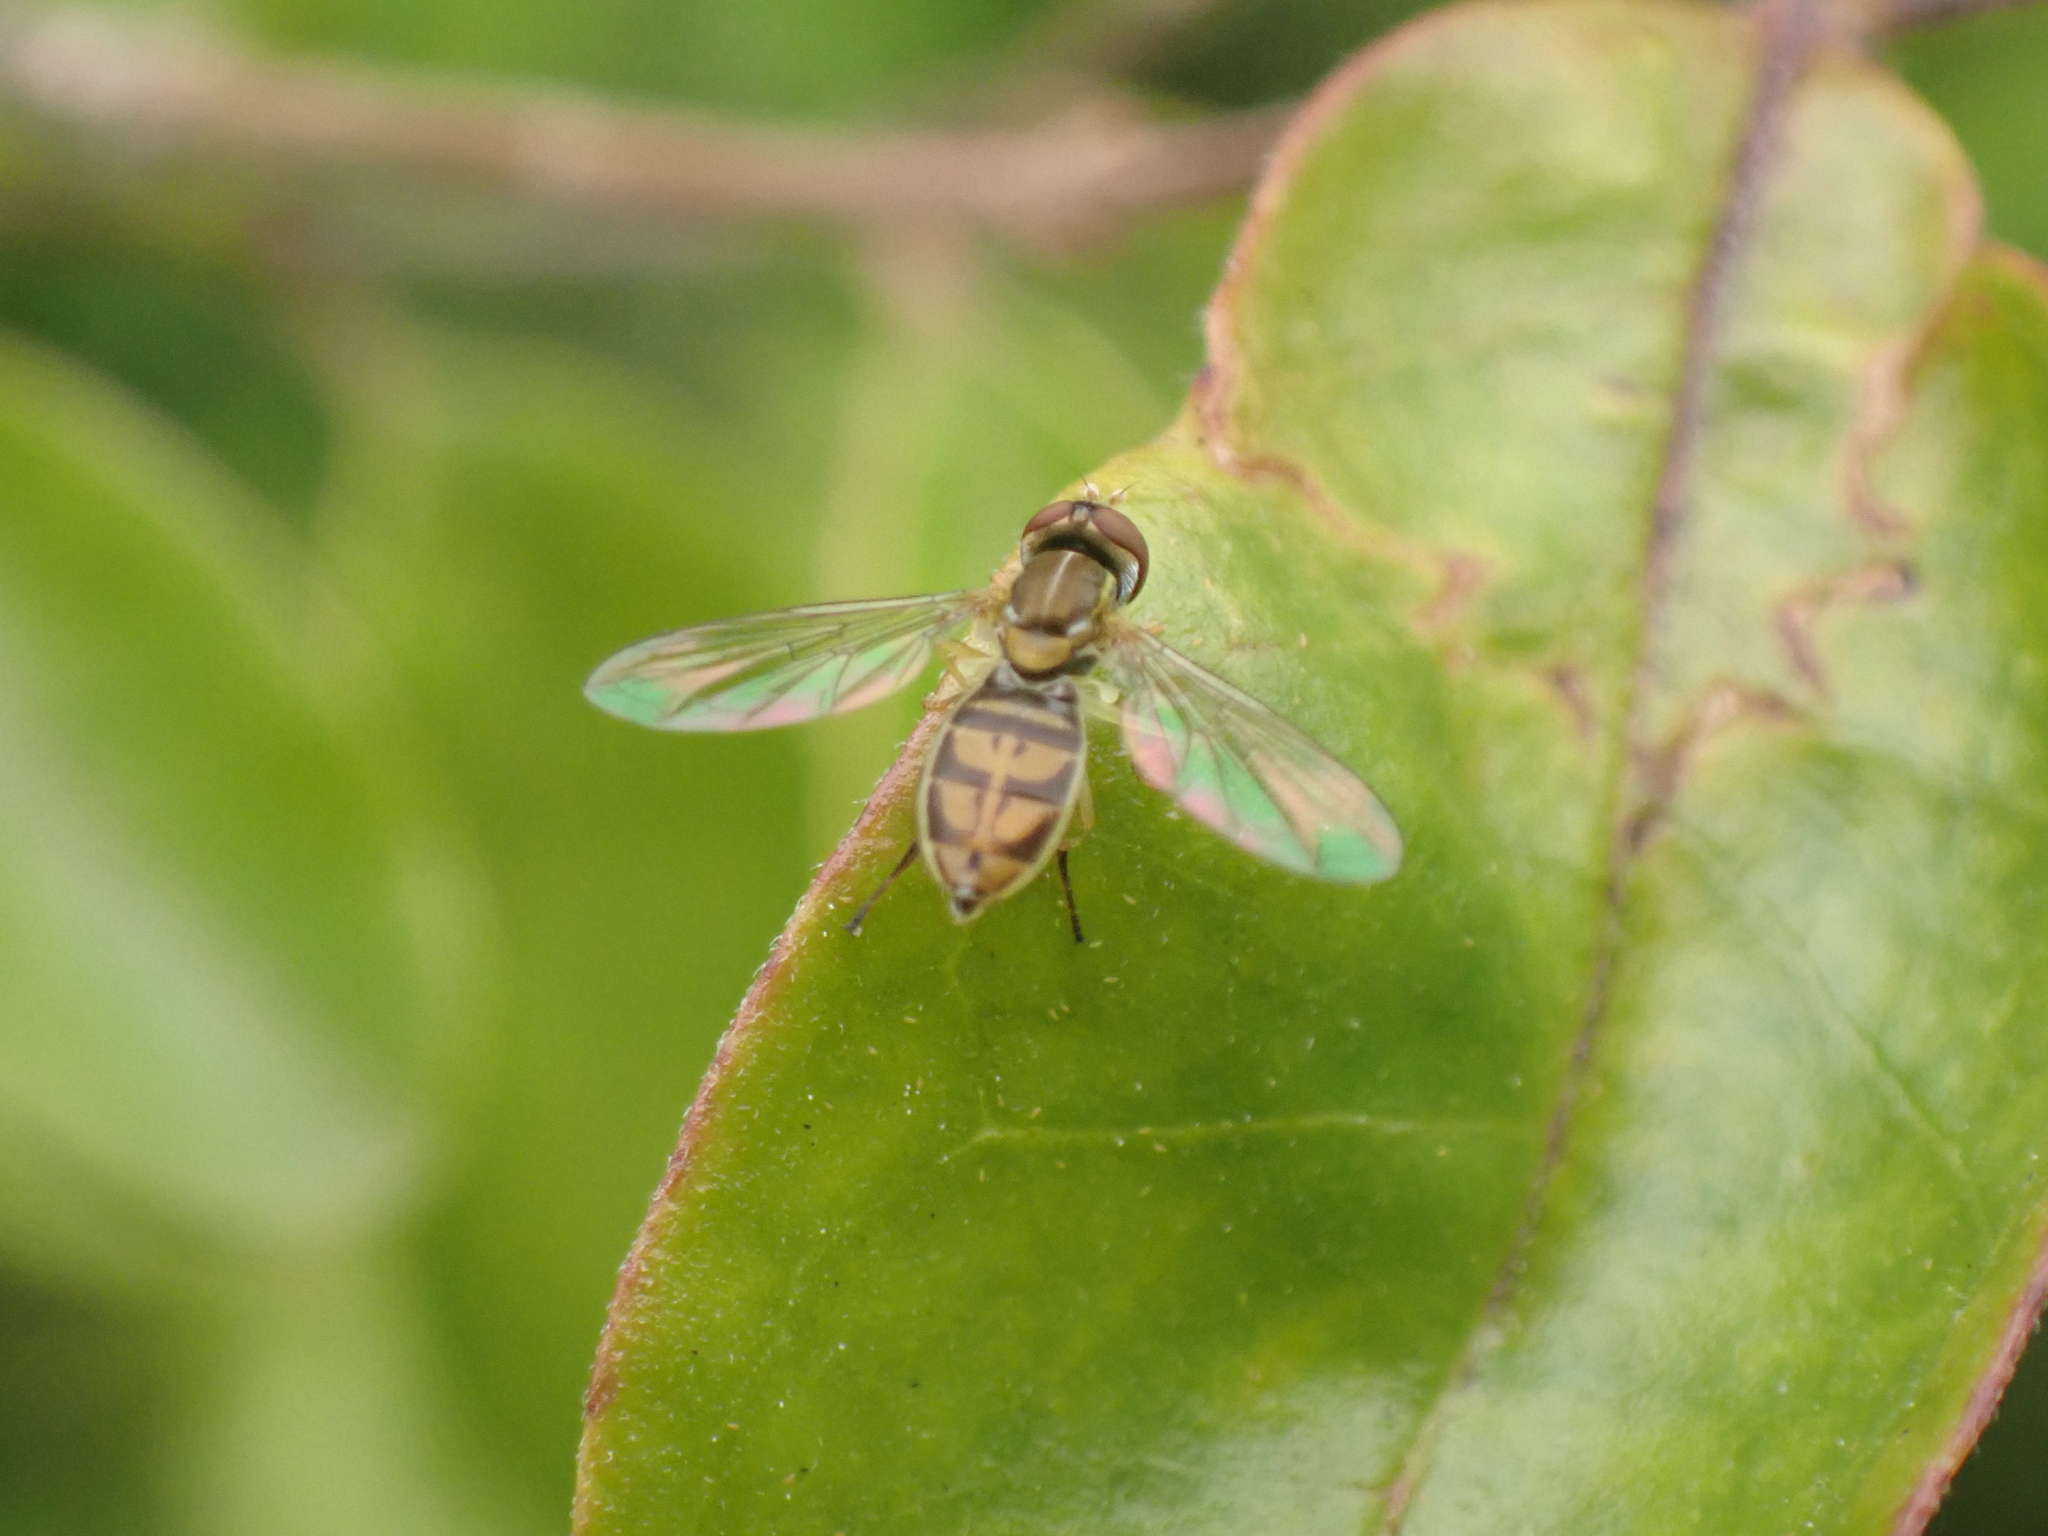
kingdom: Animalia
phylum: Arthropoda
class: Insecta
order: Diptera
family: Syrphidae
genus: Toxomerus
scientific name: Toxomerus marginatus
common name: Syrphid fly
